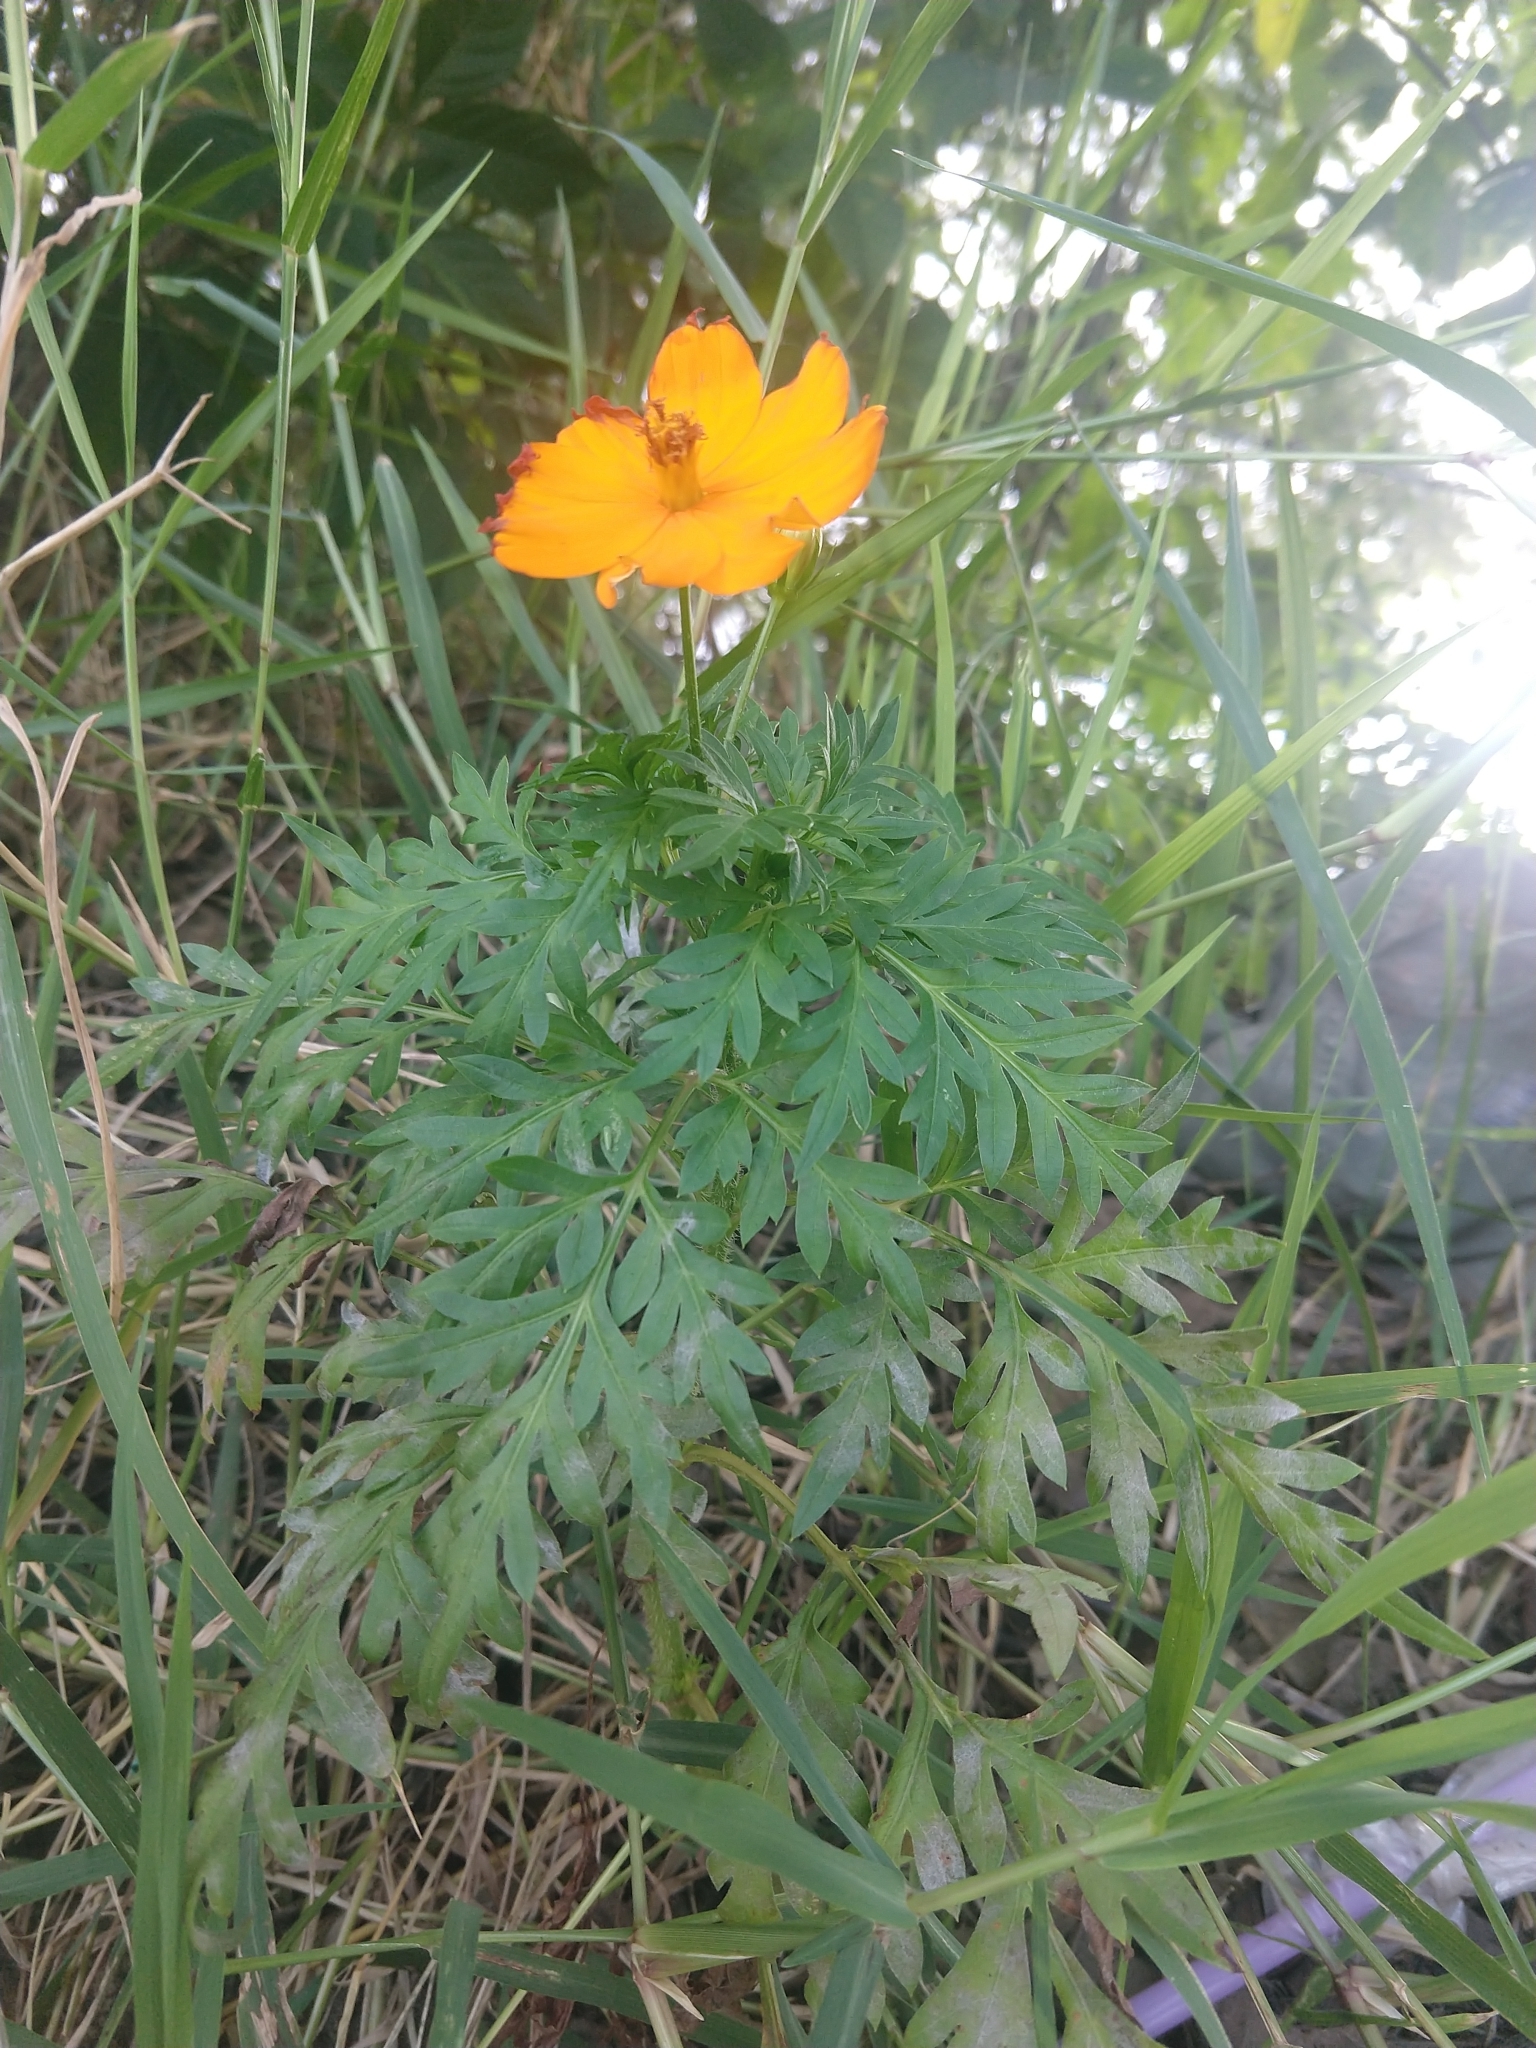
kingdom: Plantae
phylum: Tracheophyta
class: Magnoliopsida
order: Asterales
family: Asteraceae
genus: Cosmos
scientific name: Cosmos sulphureus
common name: Sulphur cosmos
